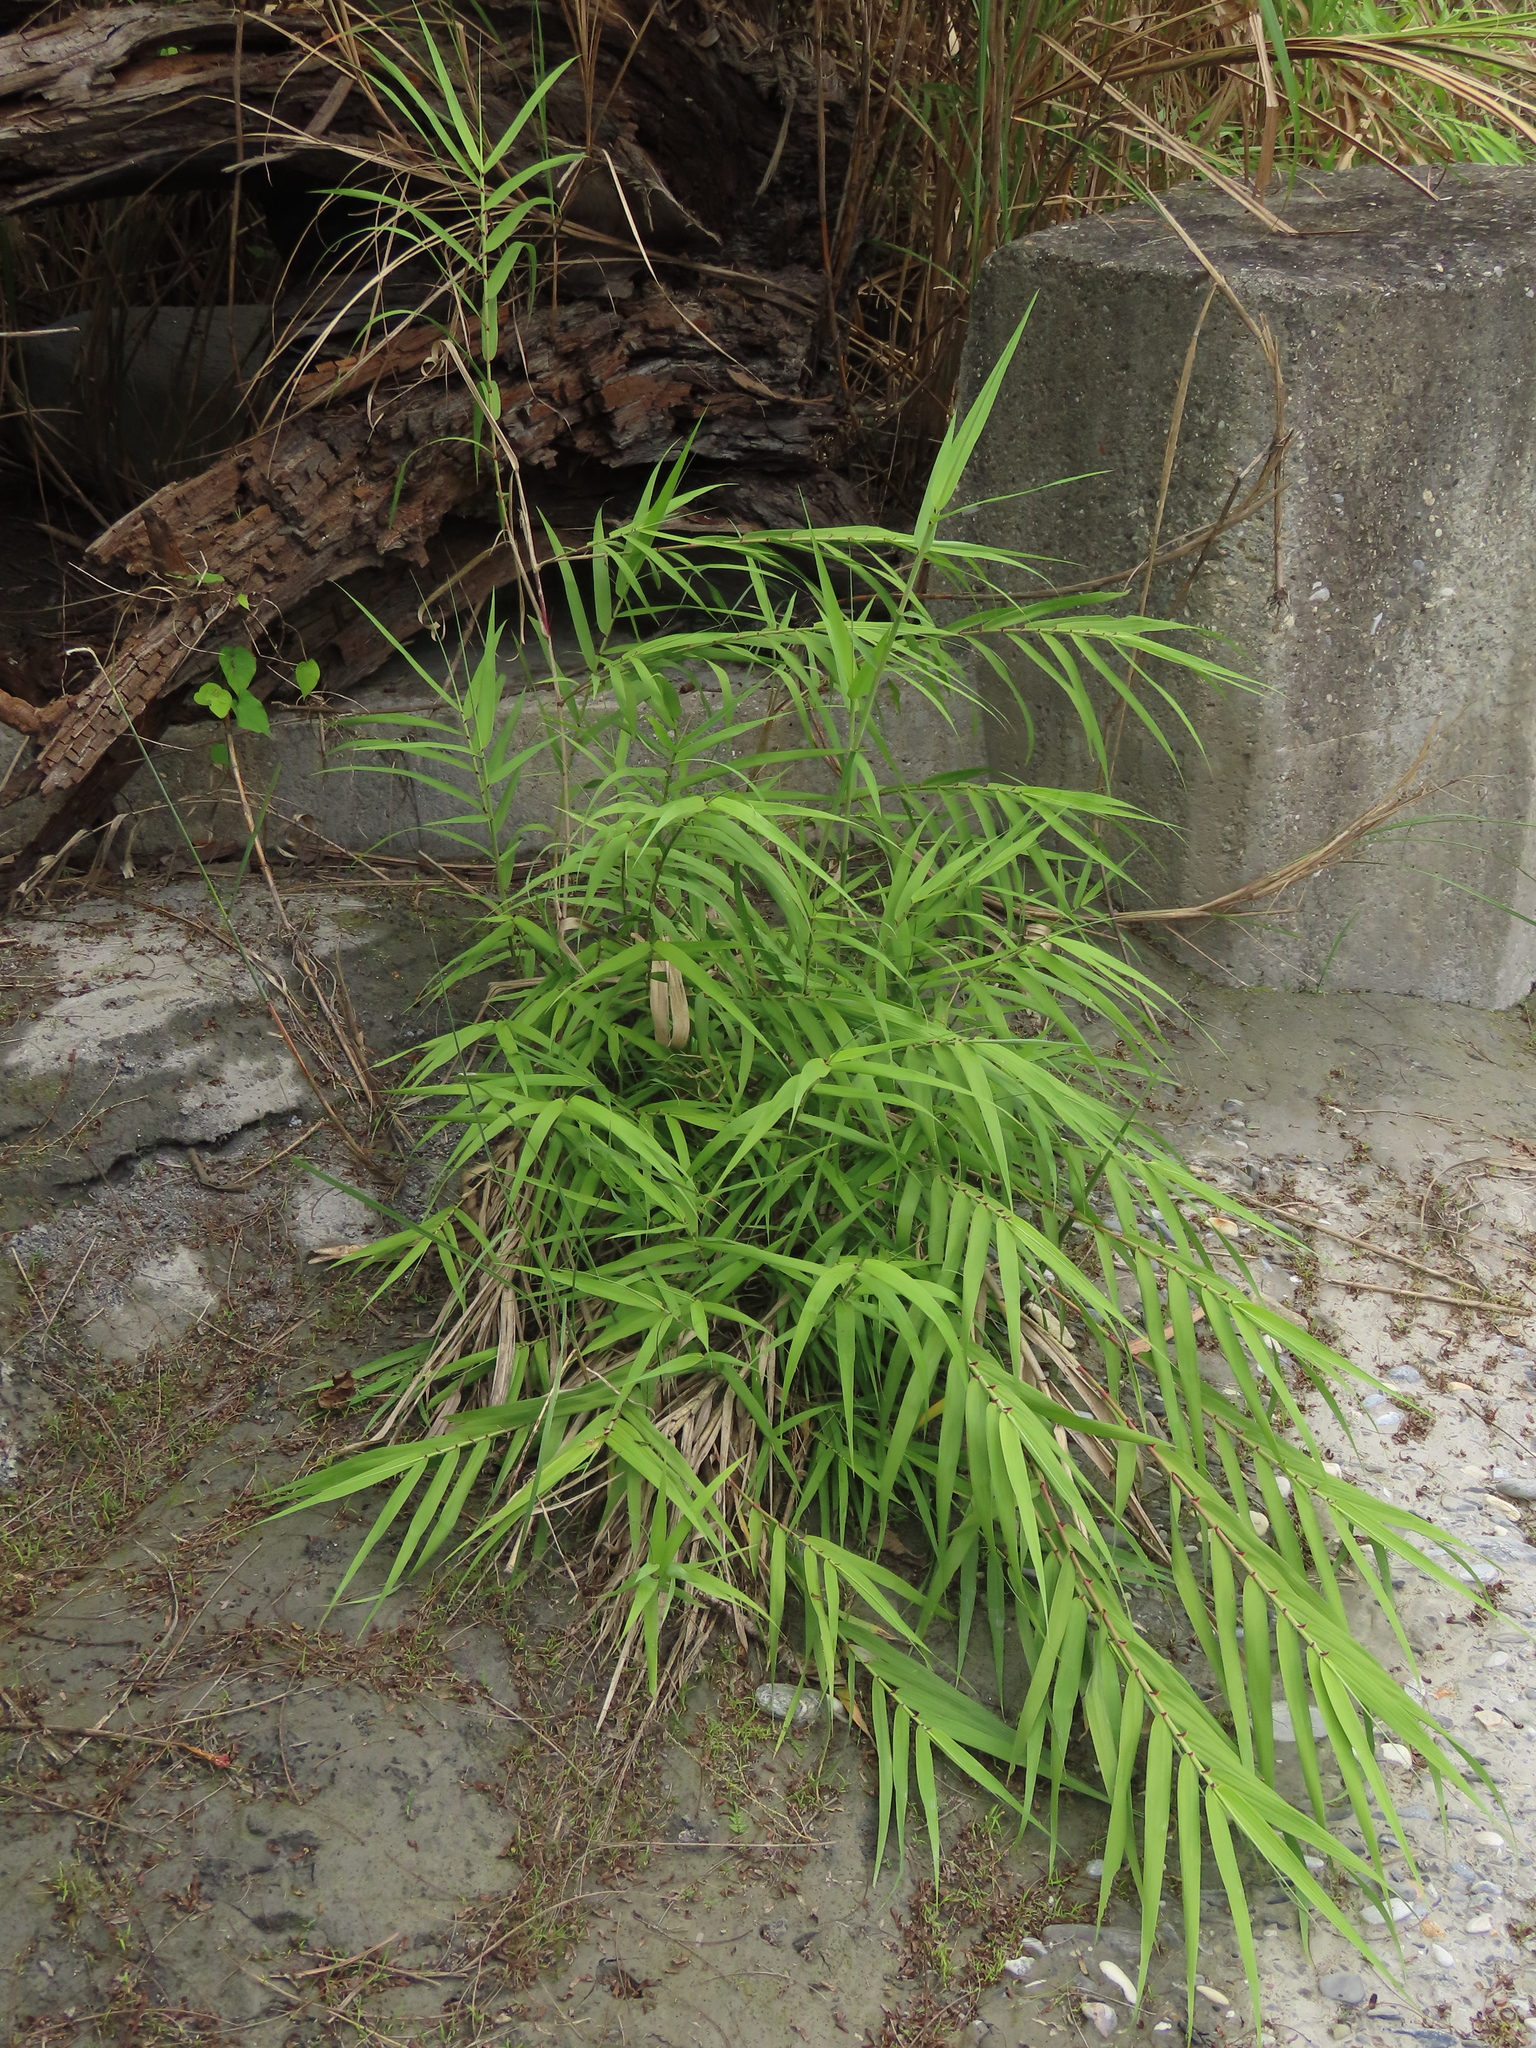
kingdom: Plantae
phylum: Tracheophyta
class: Liliopsida
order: Poales
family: Poaceae
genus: Arundo
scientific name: Arundo formosana
